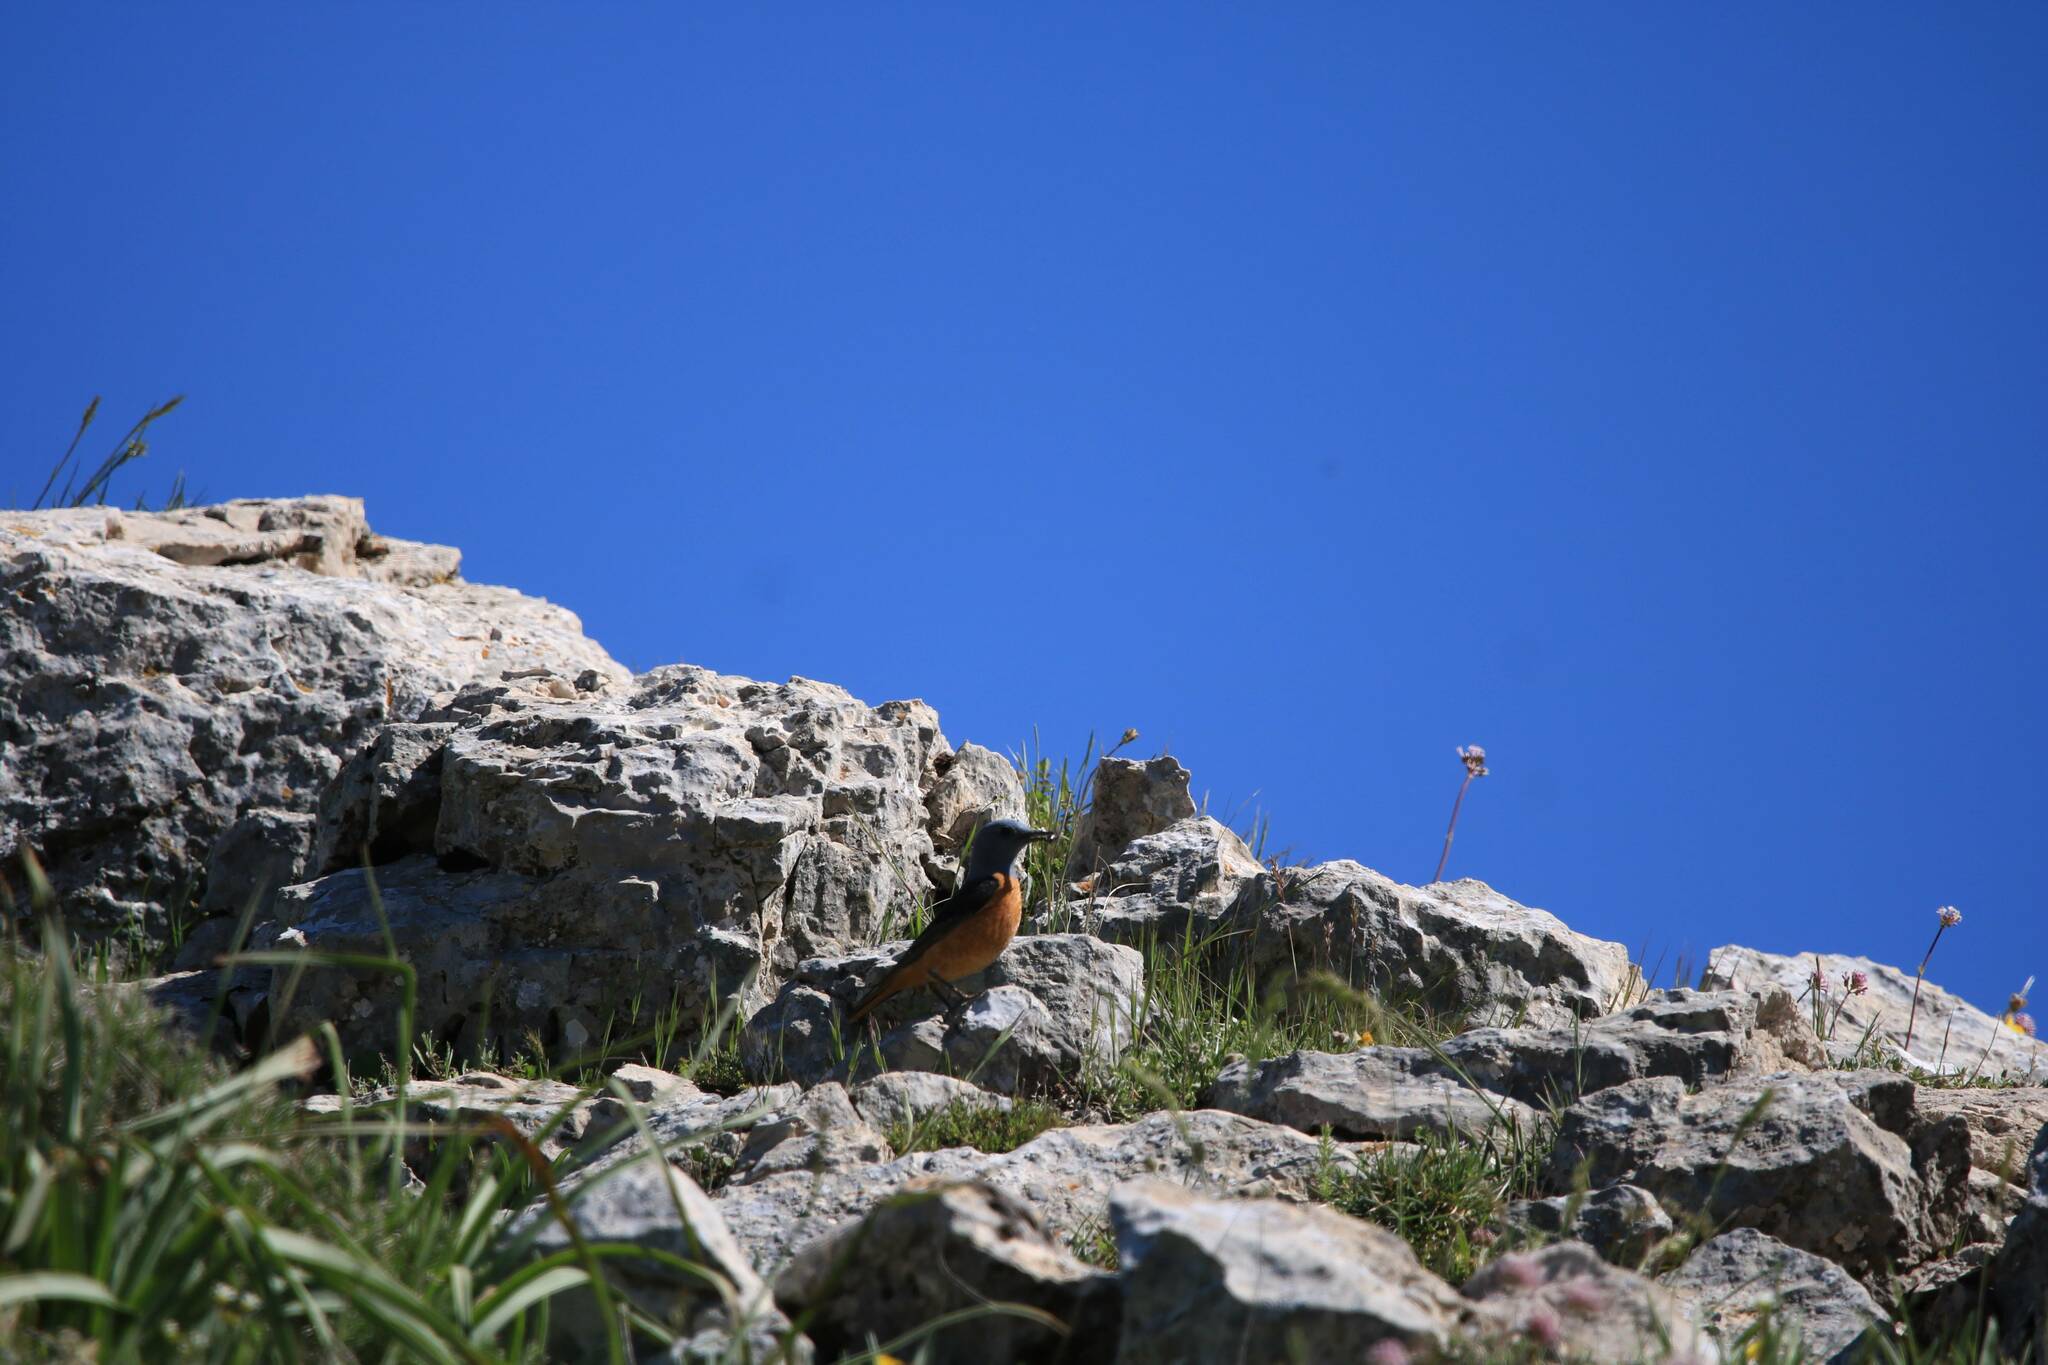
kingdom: Animalia
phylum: Chordata
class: Aves
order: Passeriformes
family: Muscicapidae
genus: Monticola
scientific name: Monticola saxatilis
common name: Rufous-tailed rock thrush
